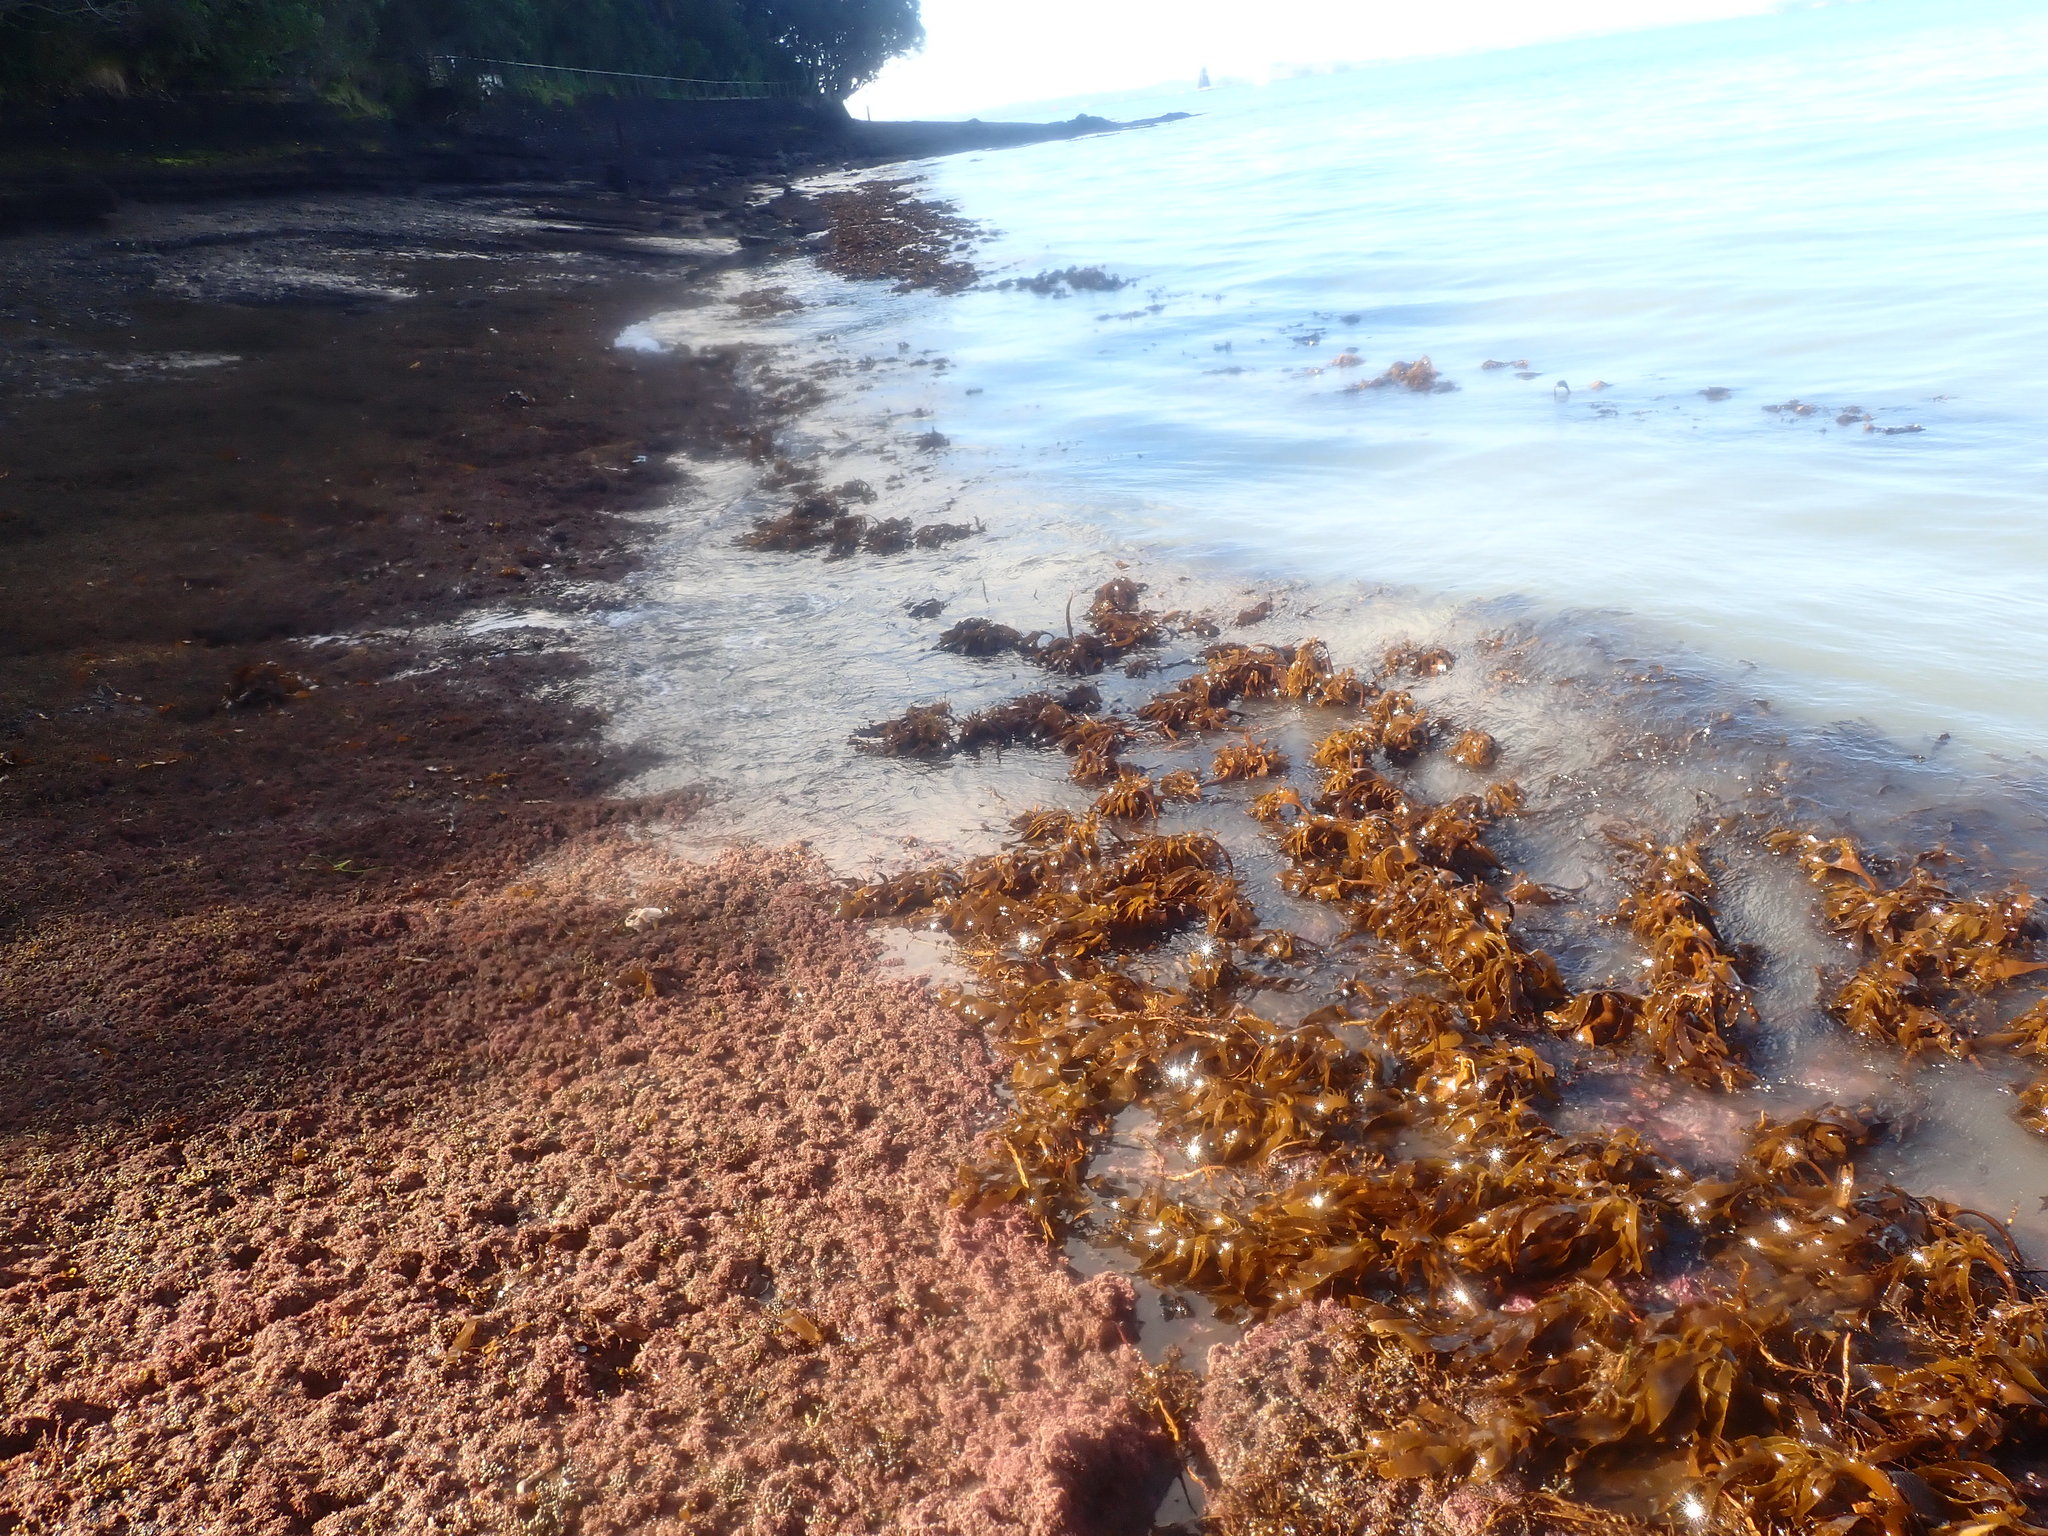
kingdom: Chromista
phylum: Ochrophyta
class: Phaeophyceae
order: Laminariales
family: Lessoniaceae
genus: Ecklonia
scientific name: Ecklonia radiata
